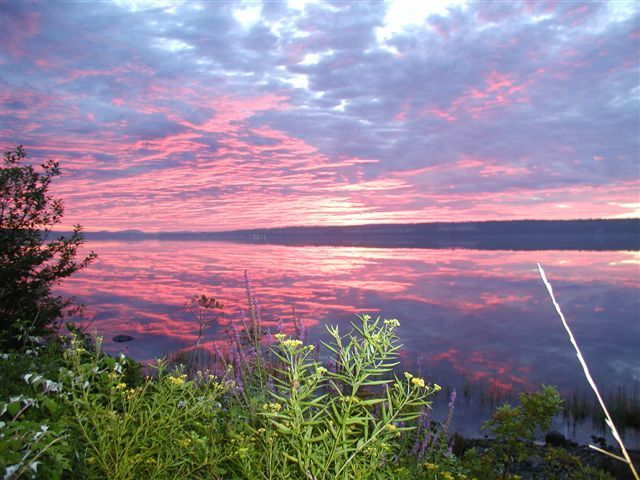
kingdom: Plantae
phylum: Tracheophyta
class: Magnoliopsida
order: Asterales
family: Asteraceae
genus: Euthamia
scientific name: Euthamia graminifolia
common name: Common goldentop
